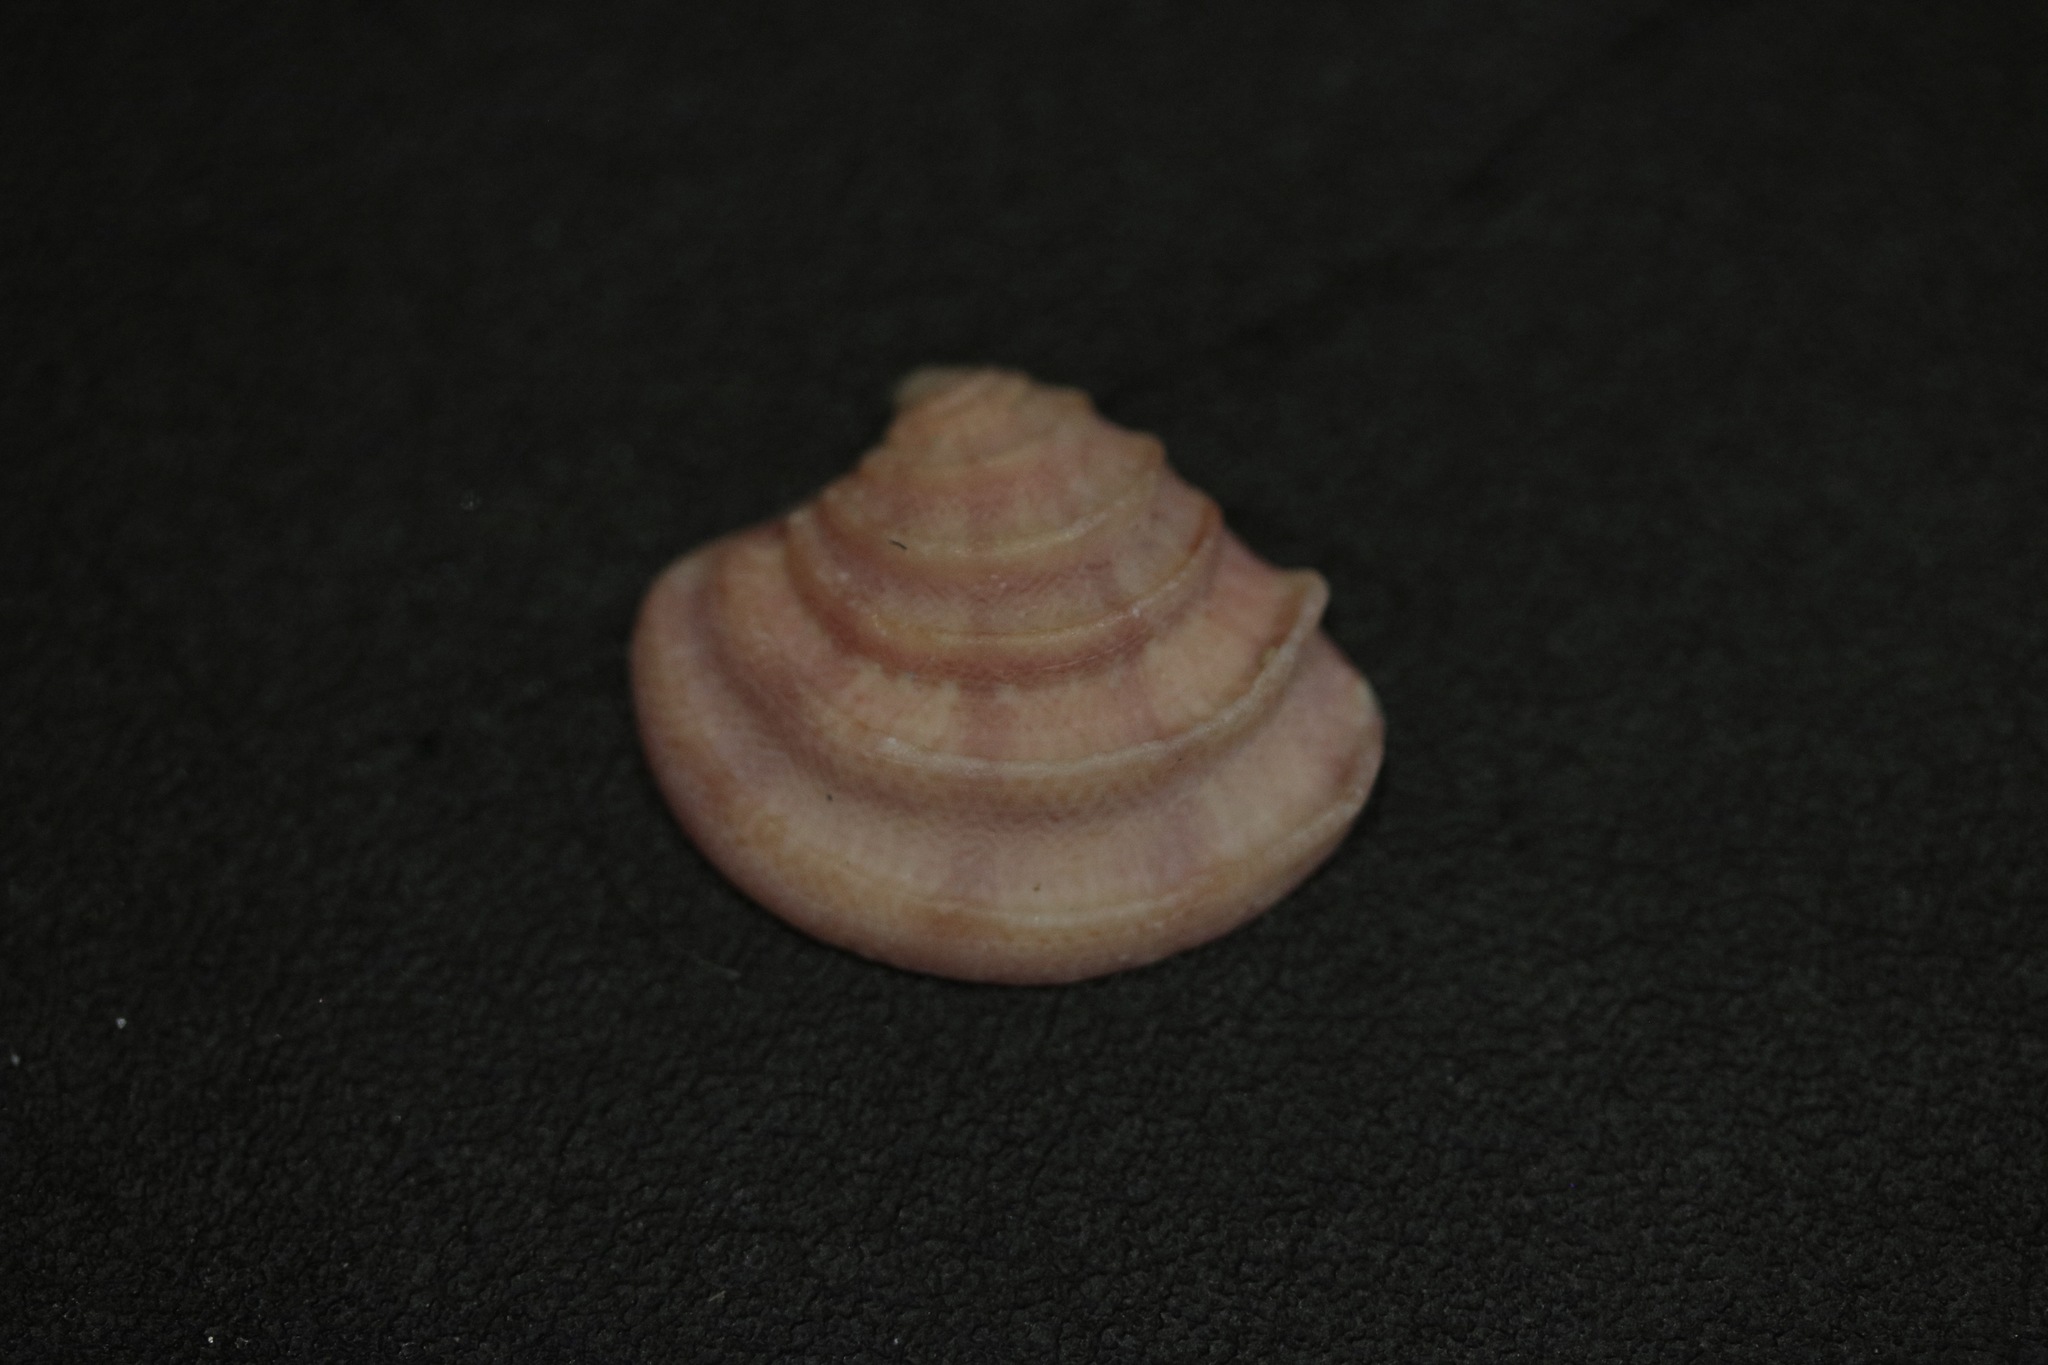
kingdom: Animalia
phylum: Mollusca
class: Bivalvia
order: Venerida
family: Veneridae
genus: Clausinella
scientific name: Clausinella fasciata
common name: Banded venus
